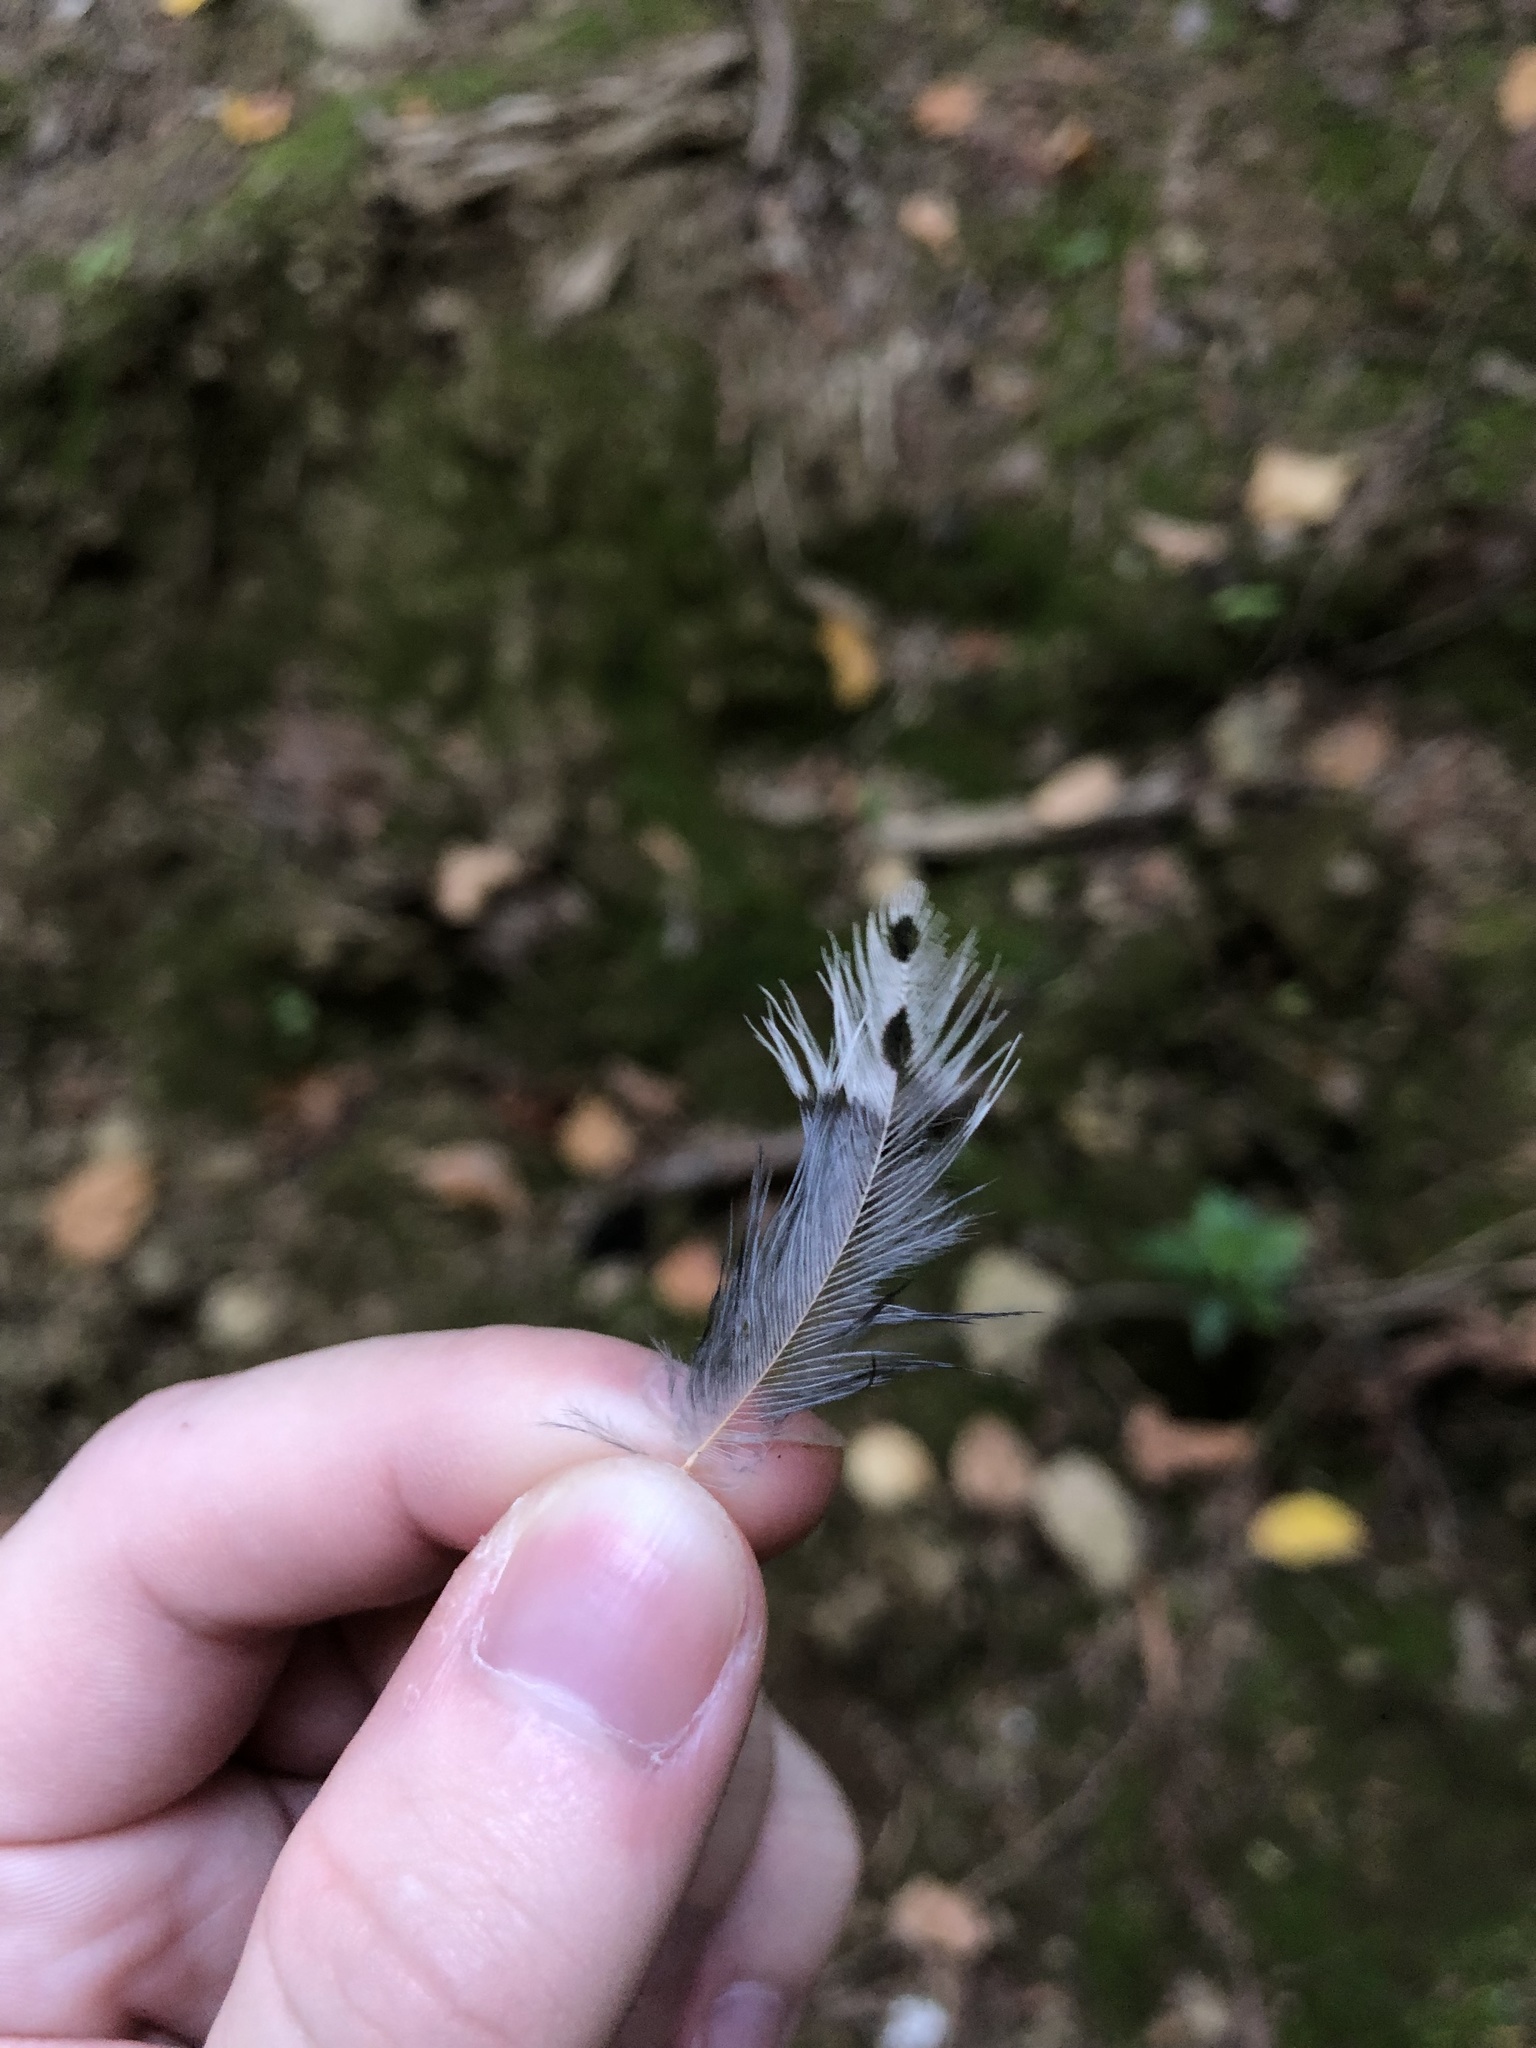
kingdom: Animalia
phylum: Chordata
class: Aves
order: Piciformes
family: Picidae
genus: Colaptes
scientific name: Colaptes auratus
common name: Northern flicker
